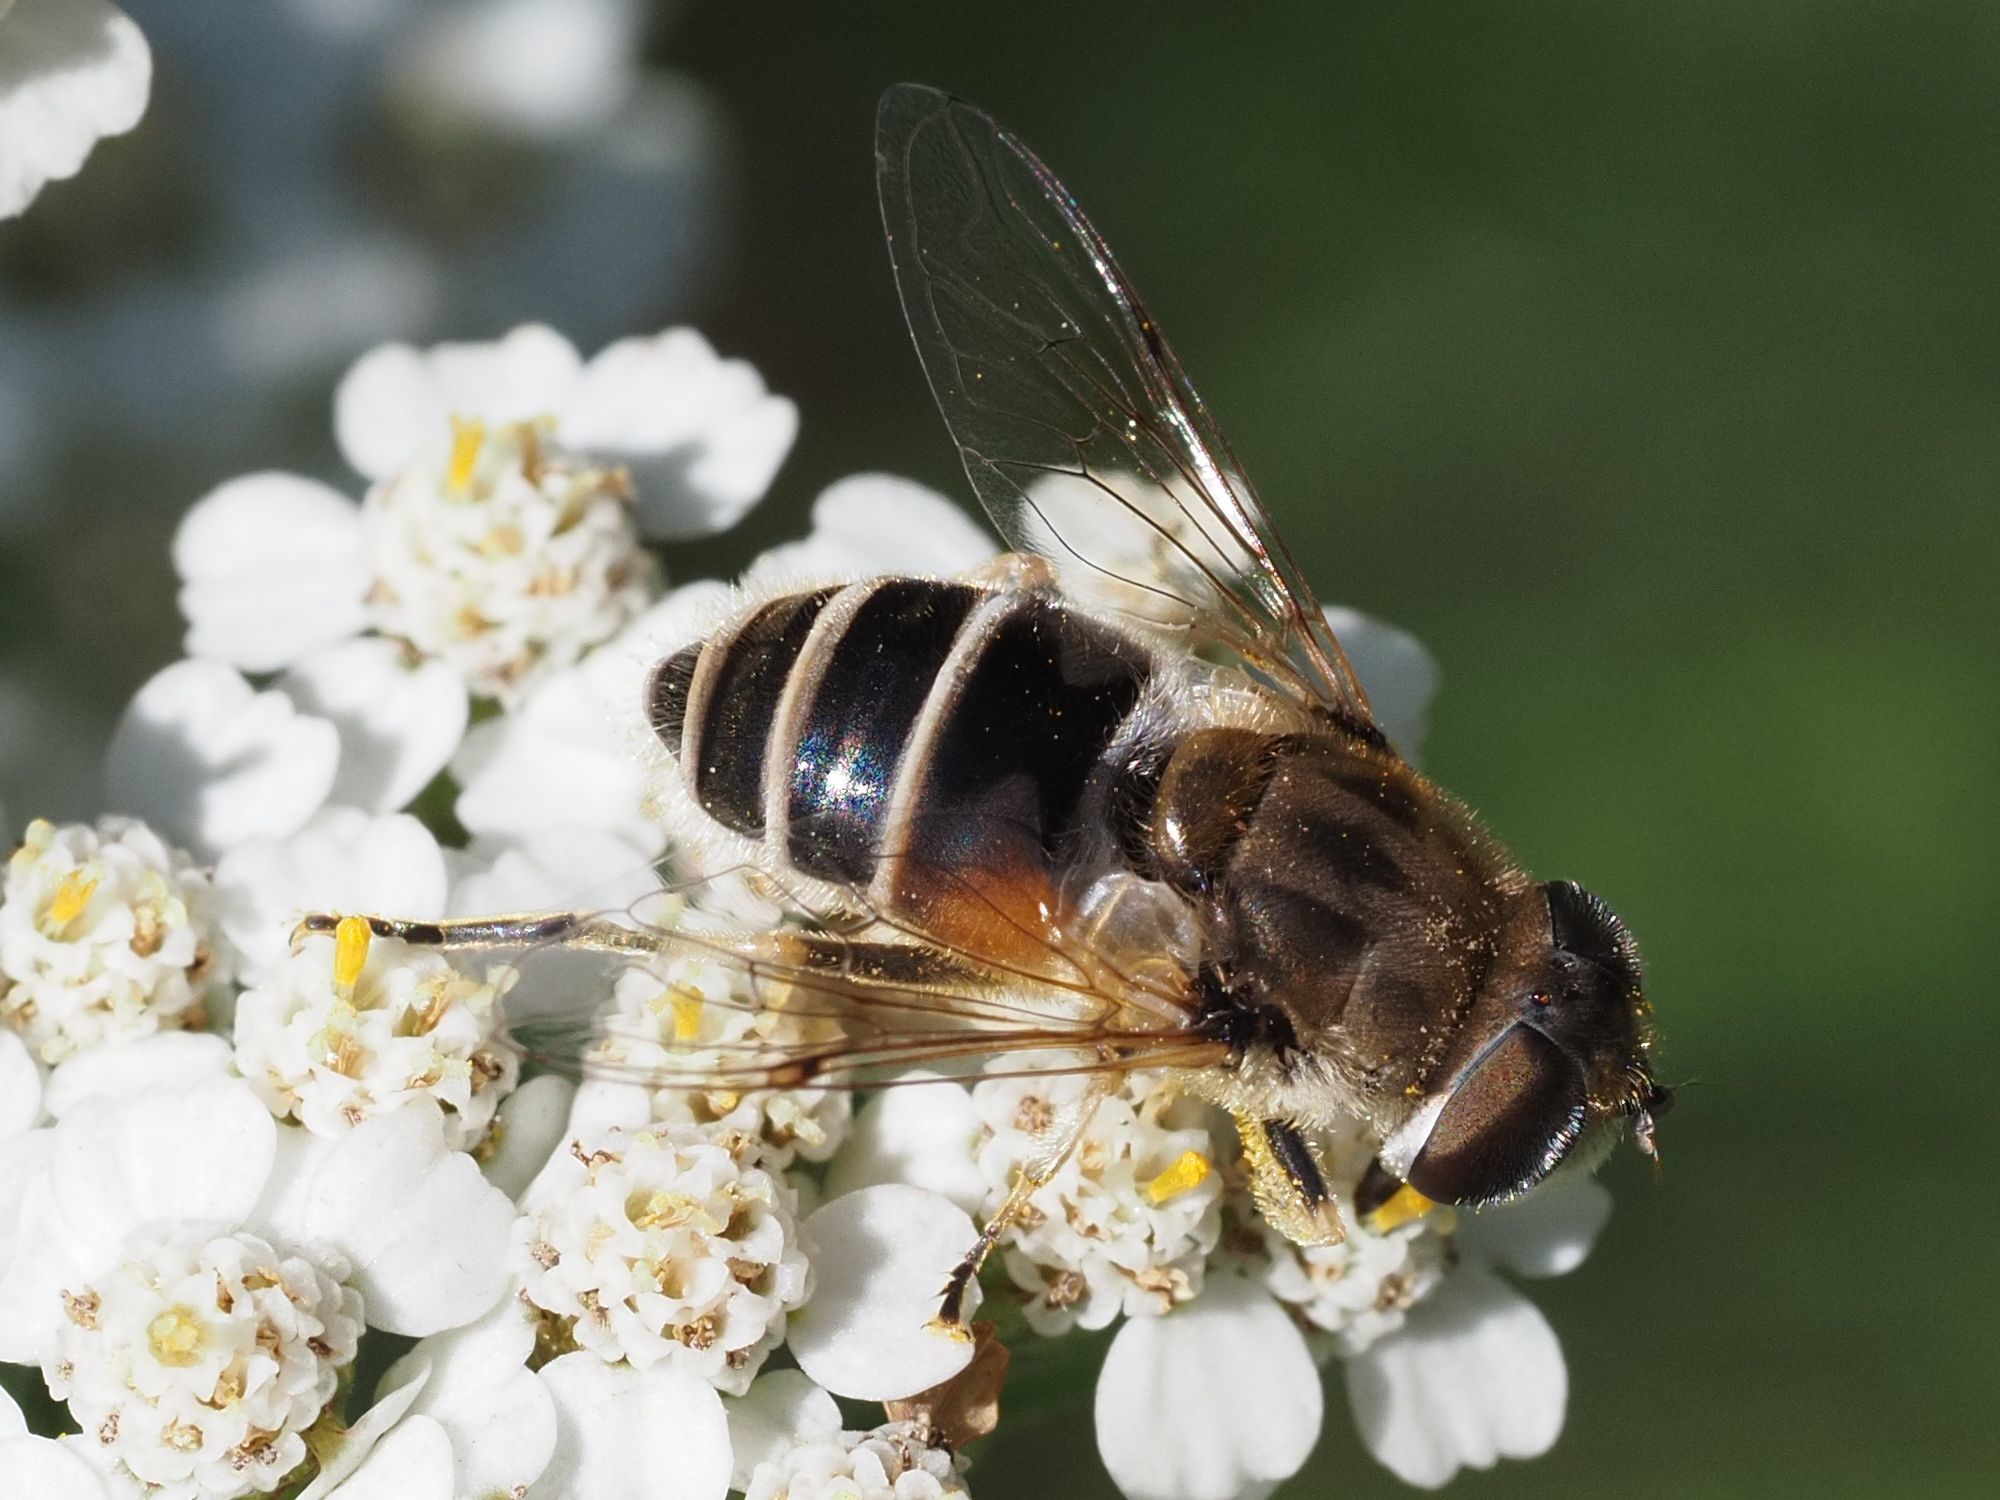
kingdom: Animalia
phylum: Arthropoda
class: Insecta
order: Diptera
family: Syrphidae
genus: Eristalis
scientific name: Eristalis arbustorum
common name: Hover fly
